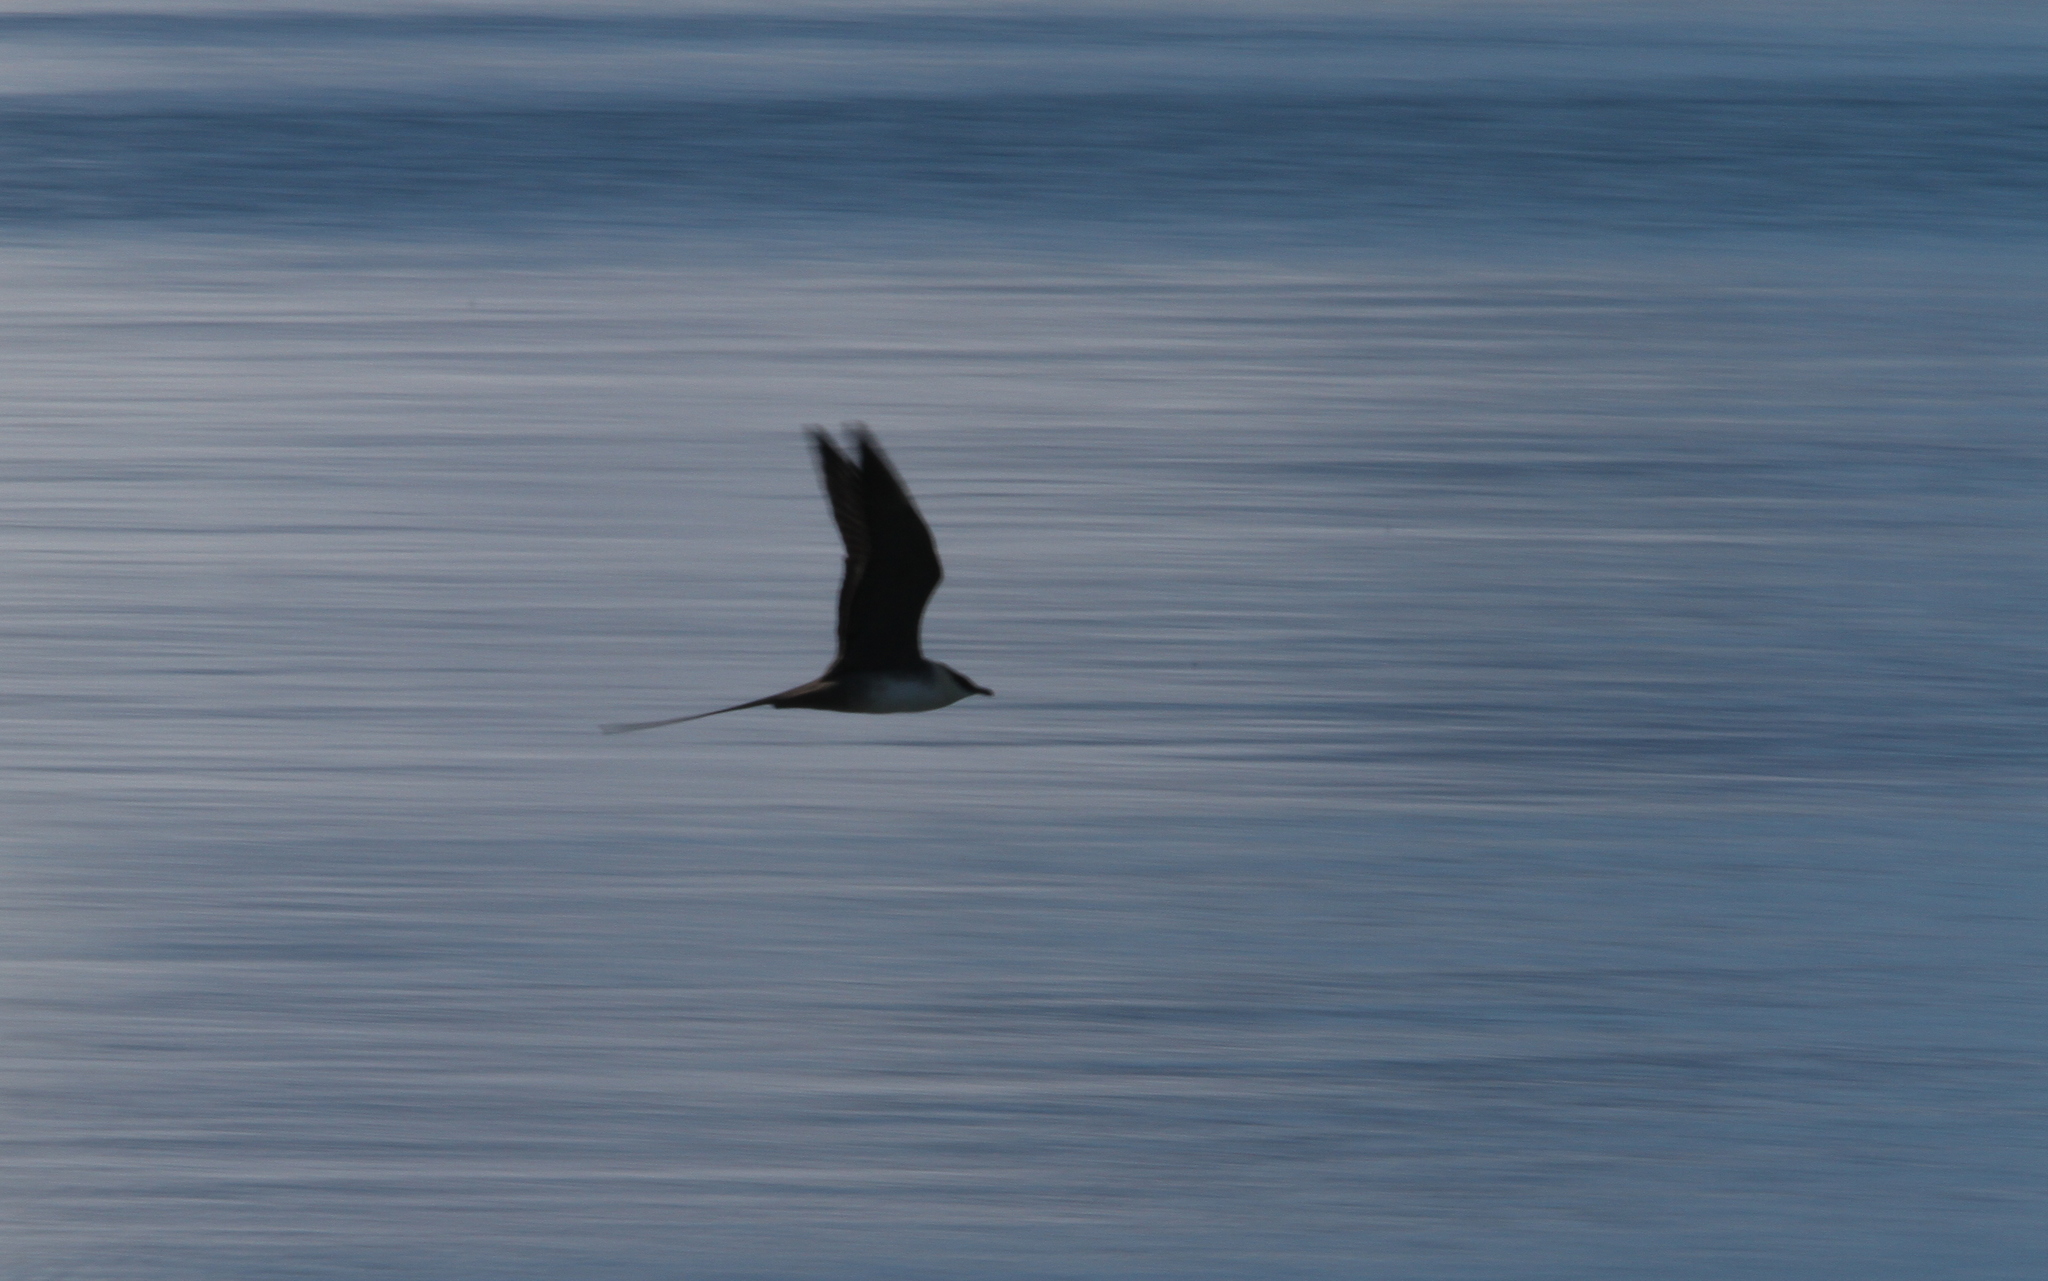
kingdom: Animalia
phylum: Chordata
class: Aves
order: Charadriiformes
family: Stercorariidae
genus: Stercorarius
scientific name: Stercorarius longicaudus
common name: Long-tailed jaeger
